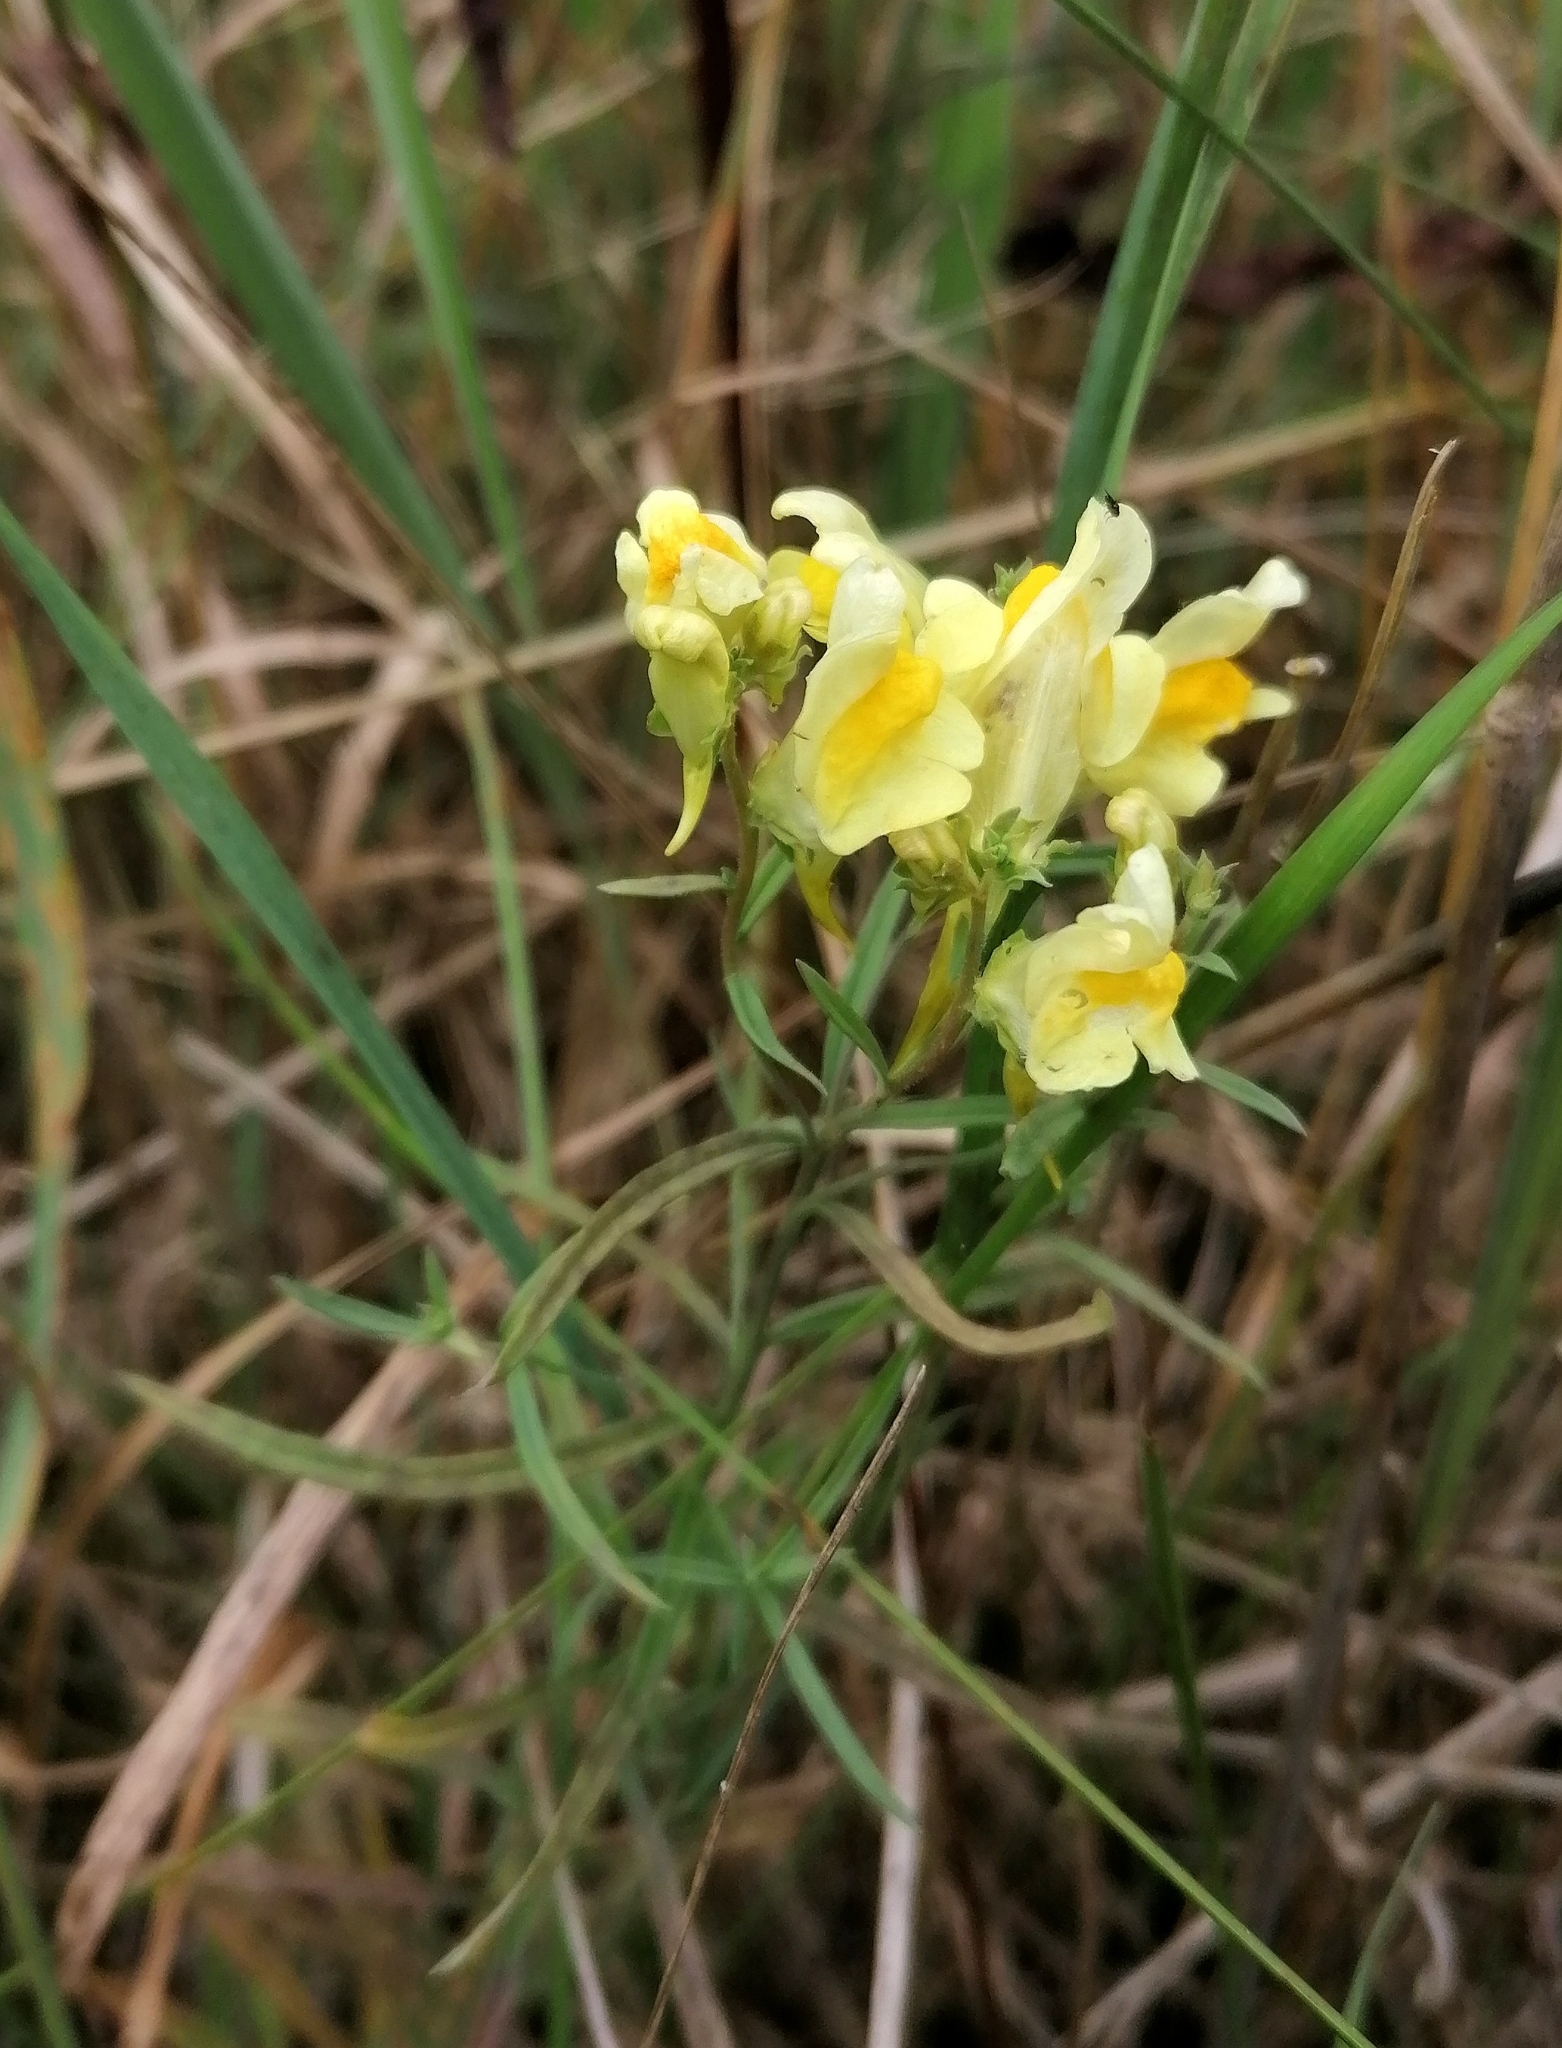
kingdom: Plantae
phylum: Tracheophyta
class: Magnoliopsida
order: Lamiales
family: Plantaginaceae
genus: Linaria
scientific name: Linaria vulgaris
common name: Butter and eggs
